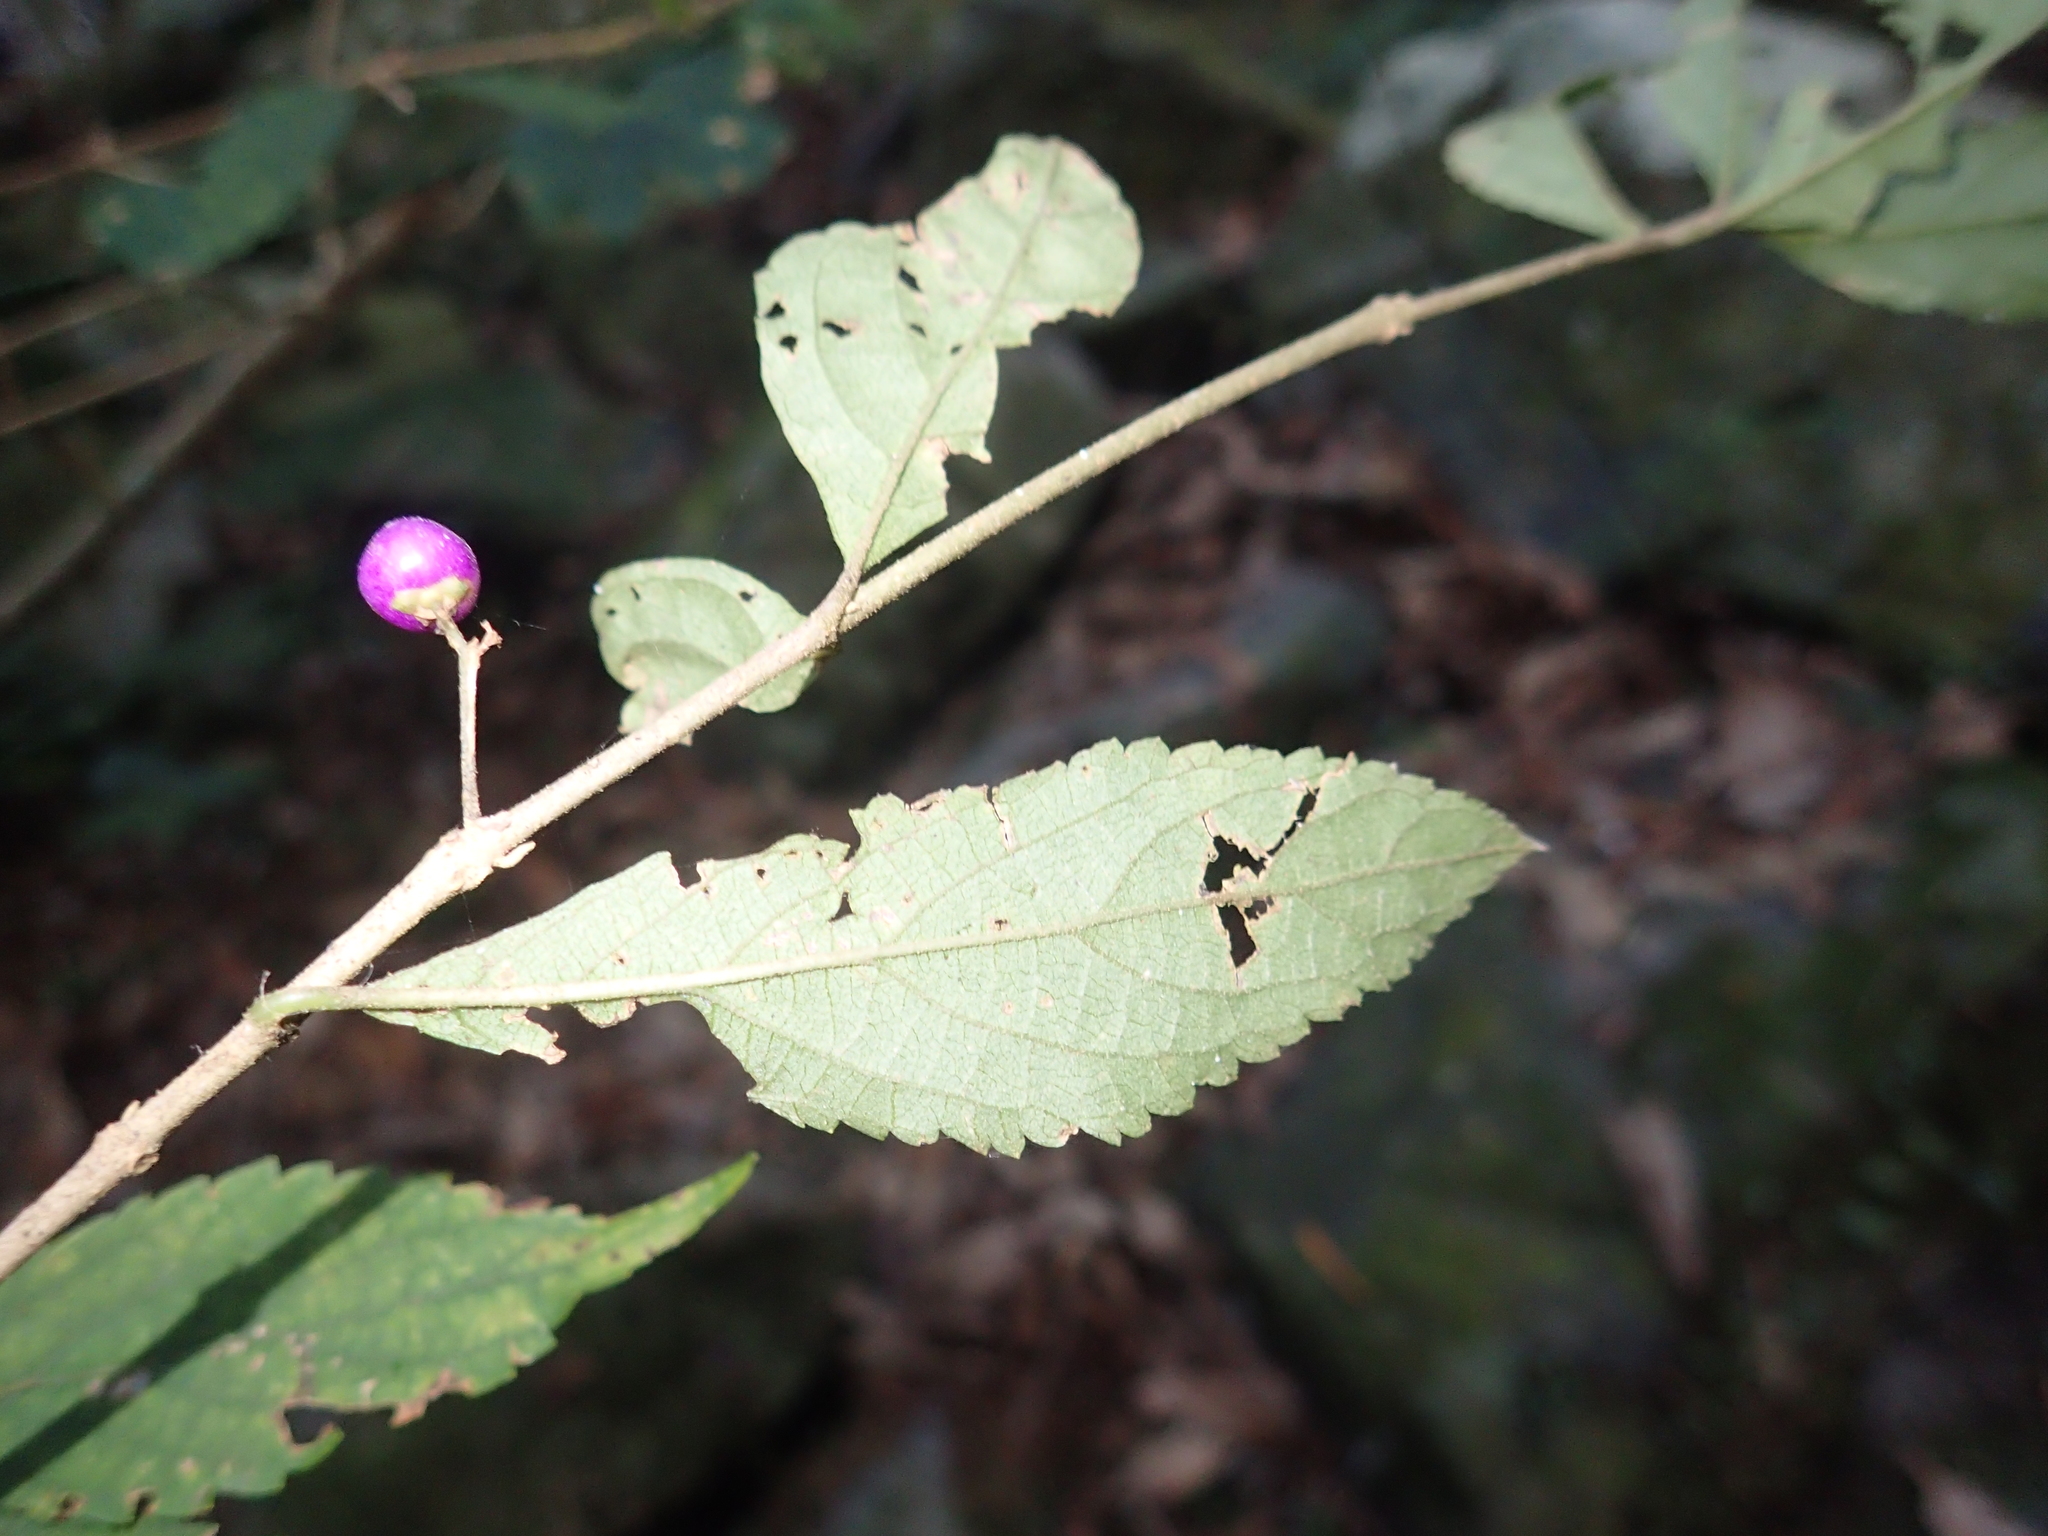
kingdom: Plantae
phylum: Tracheophyta
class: Magnoliopsida
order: Lamiales
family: Lamiaceae
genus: Callicarpa
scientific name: Callicarpa randaiensis
